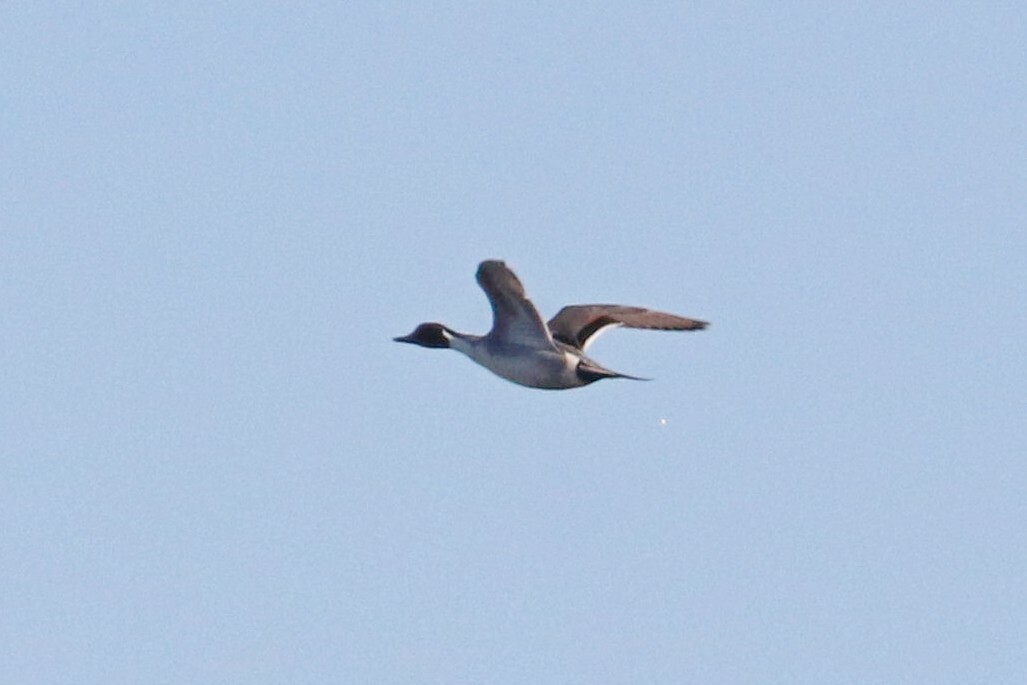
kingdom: Animalia
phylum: Chordata
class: Aves
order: Anseriformes
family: Anatidae
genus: Anas
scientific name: Anas acuta
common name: Northern pintail
